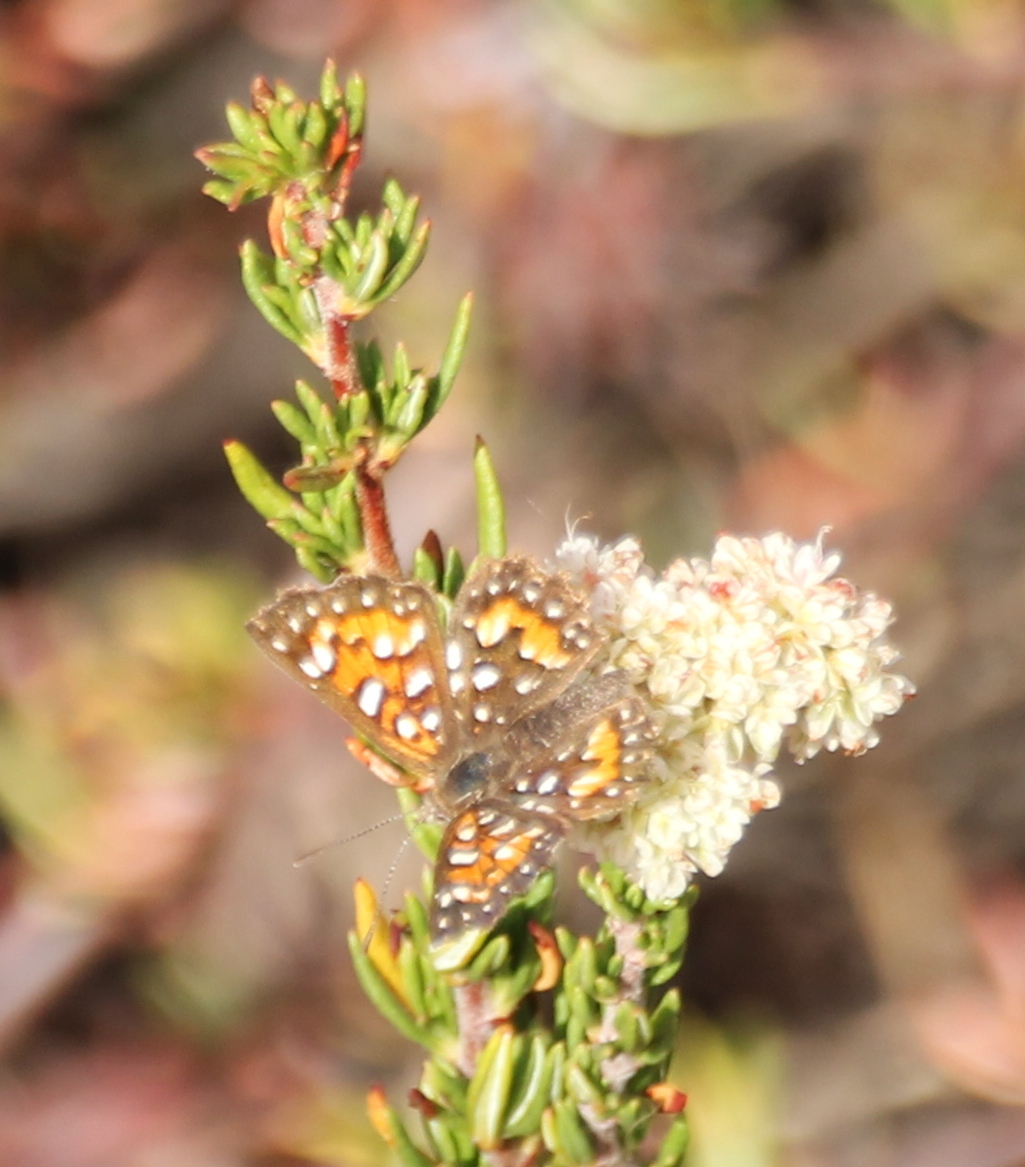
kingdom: Animalia
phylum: Arthropoda
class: Insecta
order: Lepidoptera
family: Riodinidae
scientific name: Riodinidae
